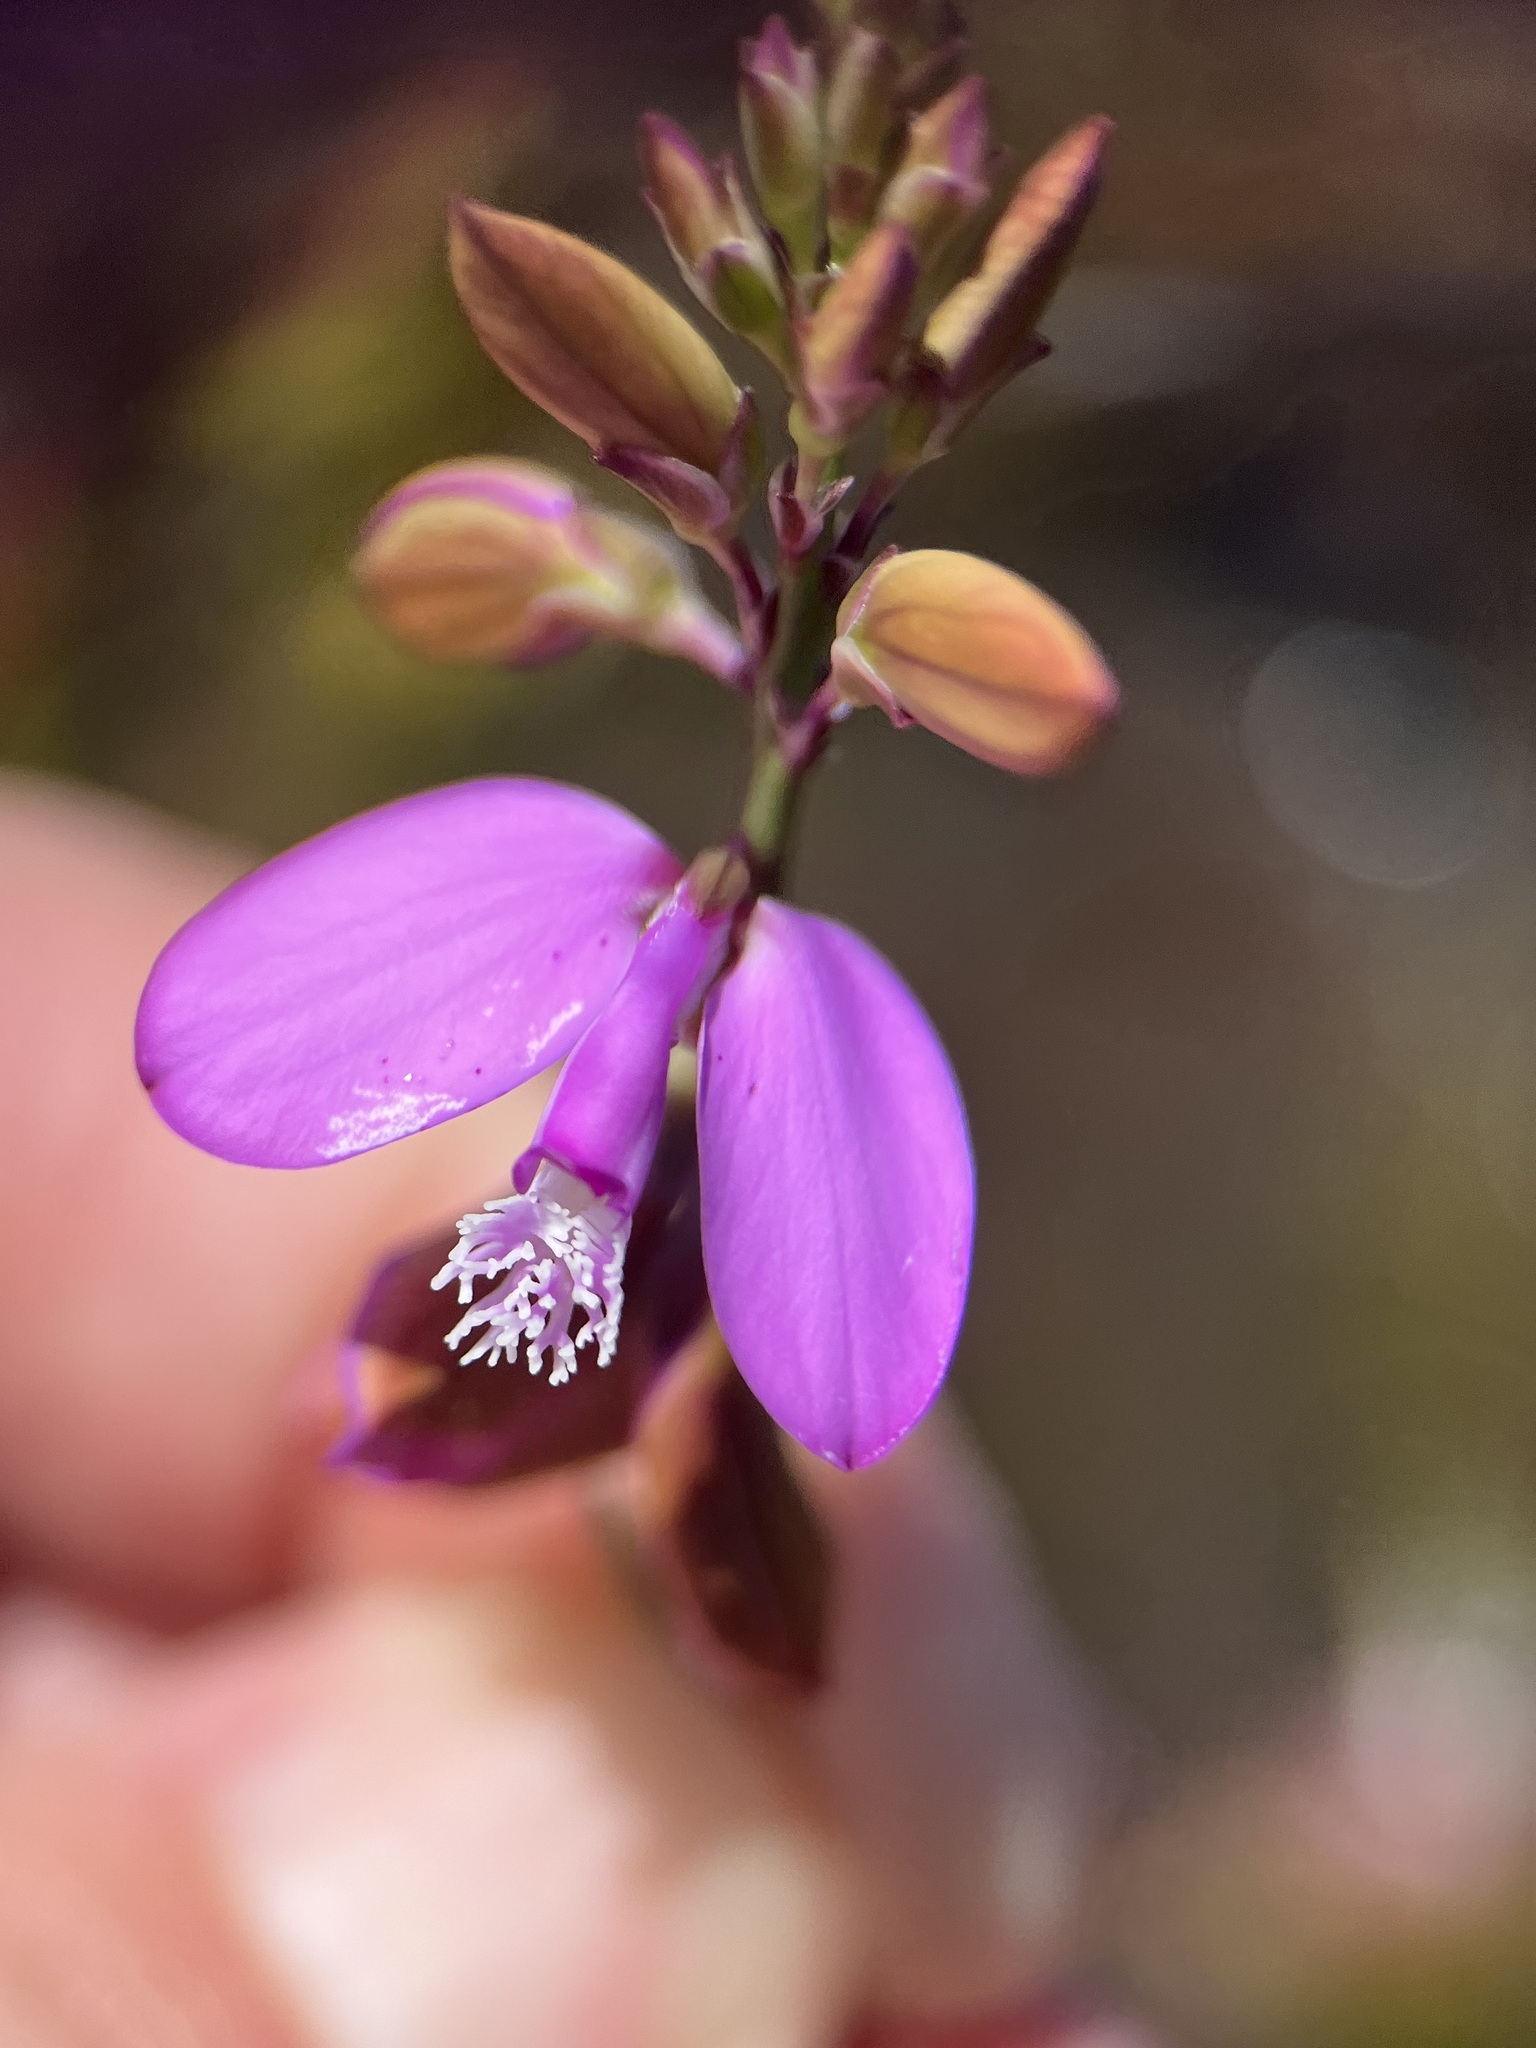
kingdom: Plantae
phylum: Tracheophyta
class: Magnoliopsida
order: Fabales
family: Polygalaceae
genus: Polygala
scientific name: Polygala garcini
